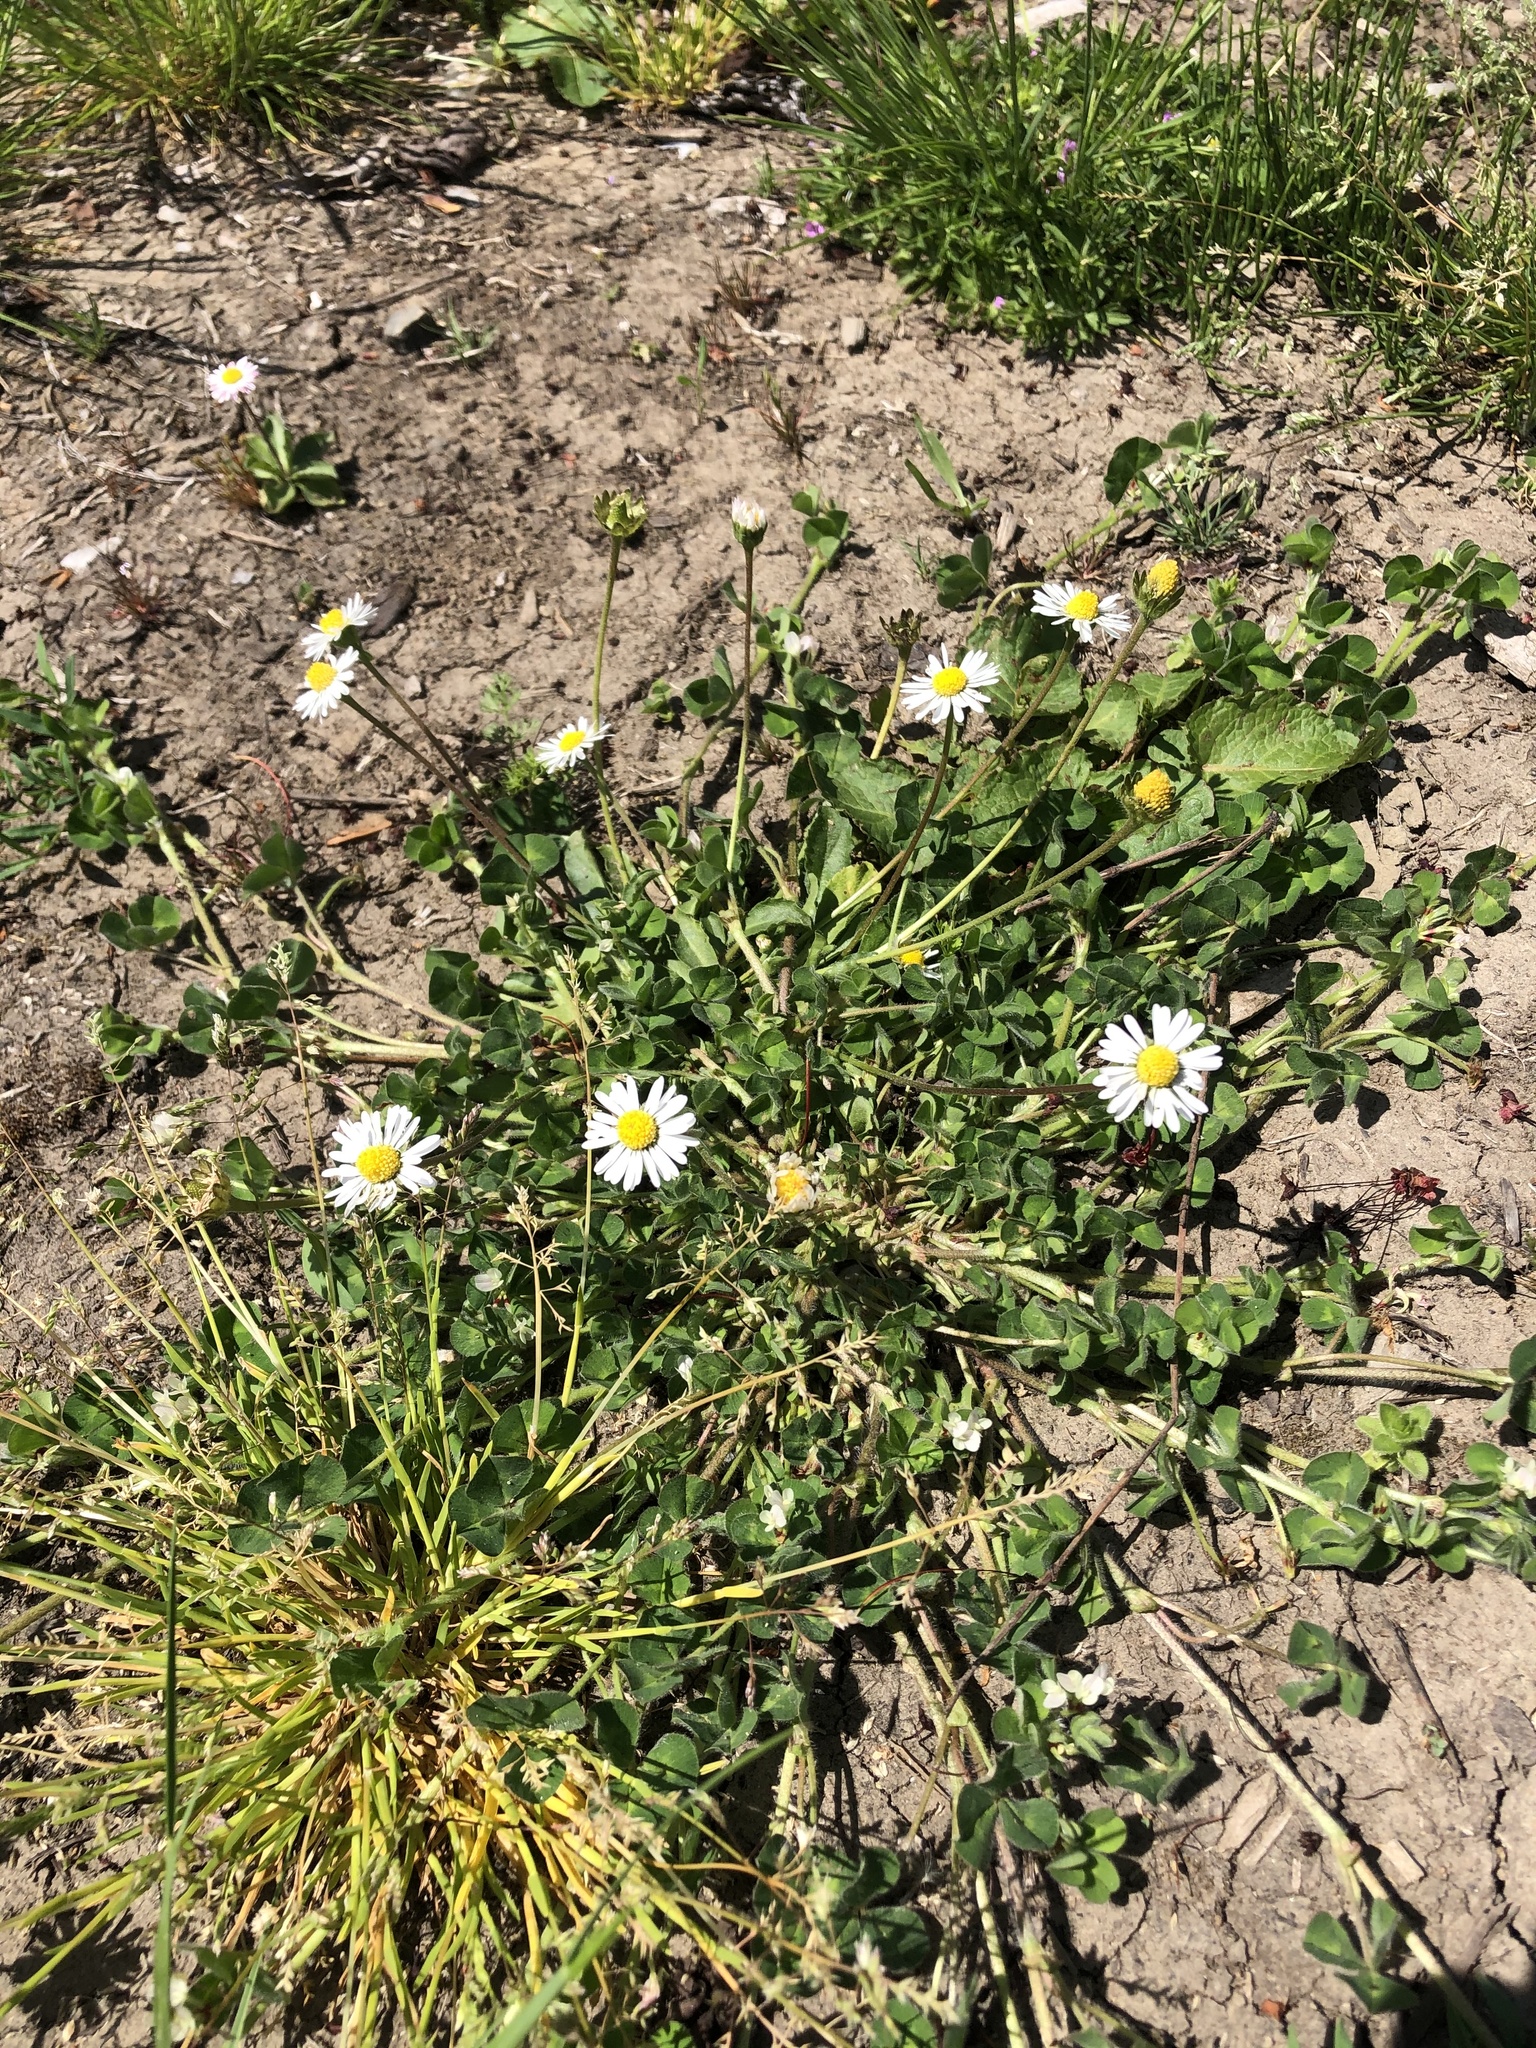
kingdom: Plantae
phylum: Tracheophyta
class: Magnoliopsida
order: Asterales
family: Asteraceae
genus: Bellis
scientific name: Bellis perennis
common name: Lawndaisy
